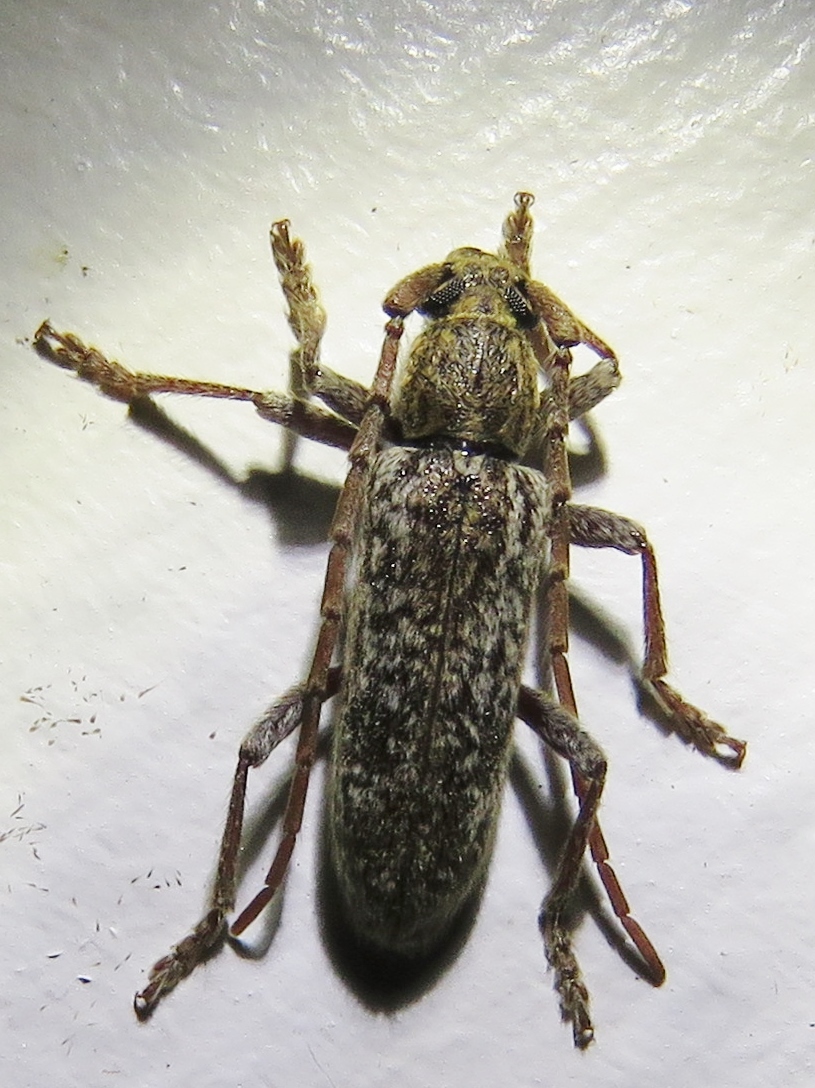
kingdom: Animalia
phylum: Arthropoda
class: Insecta
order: Coleoptera
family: Cerambycidae
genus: Anelaphus
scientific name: Anelaphus debilis
